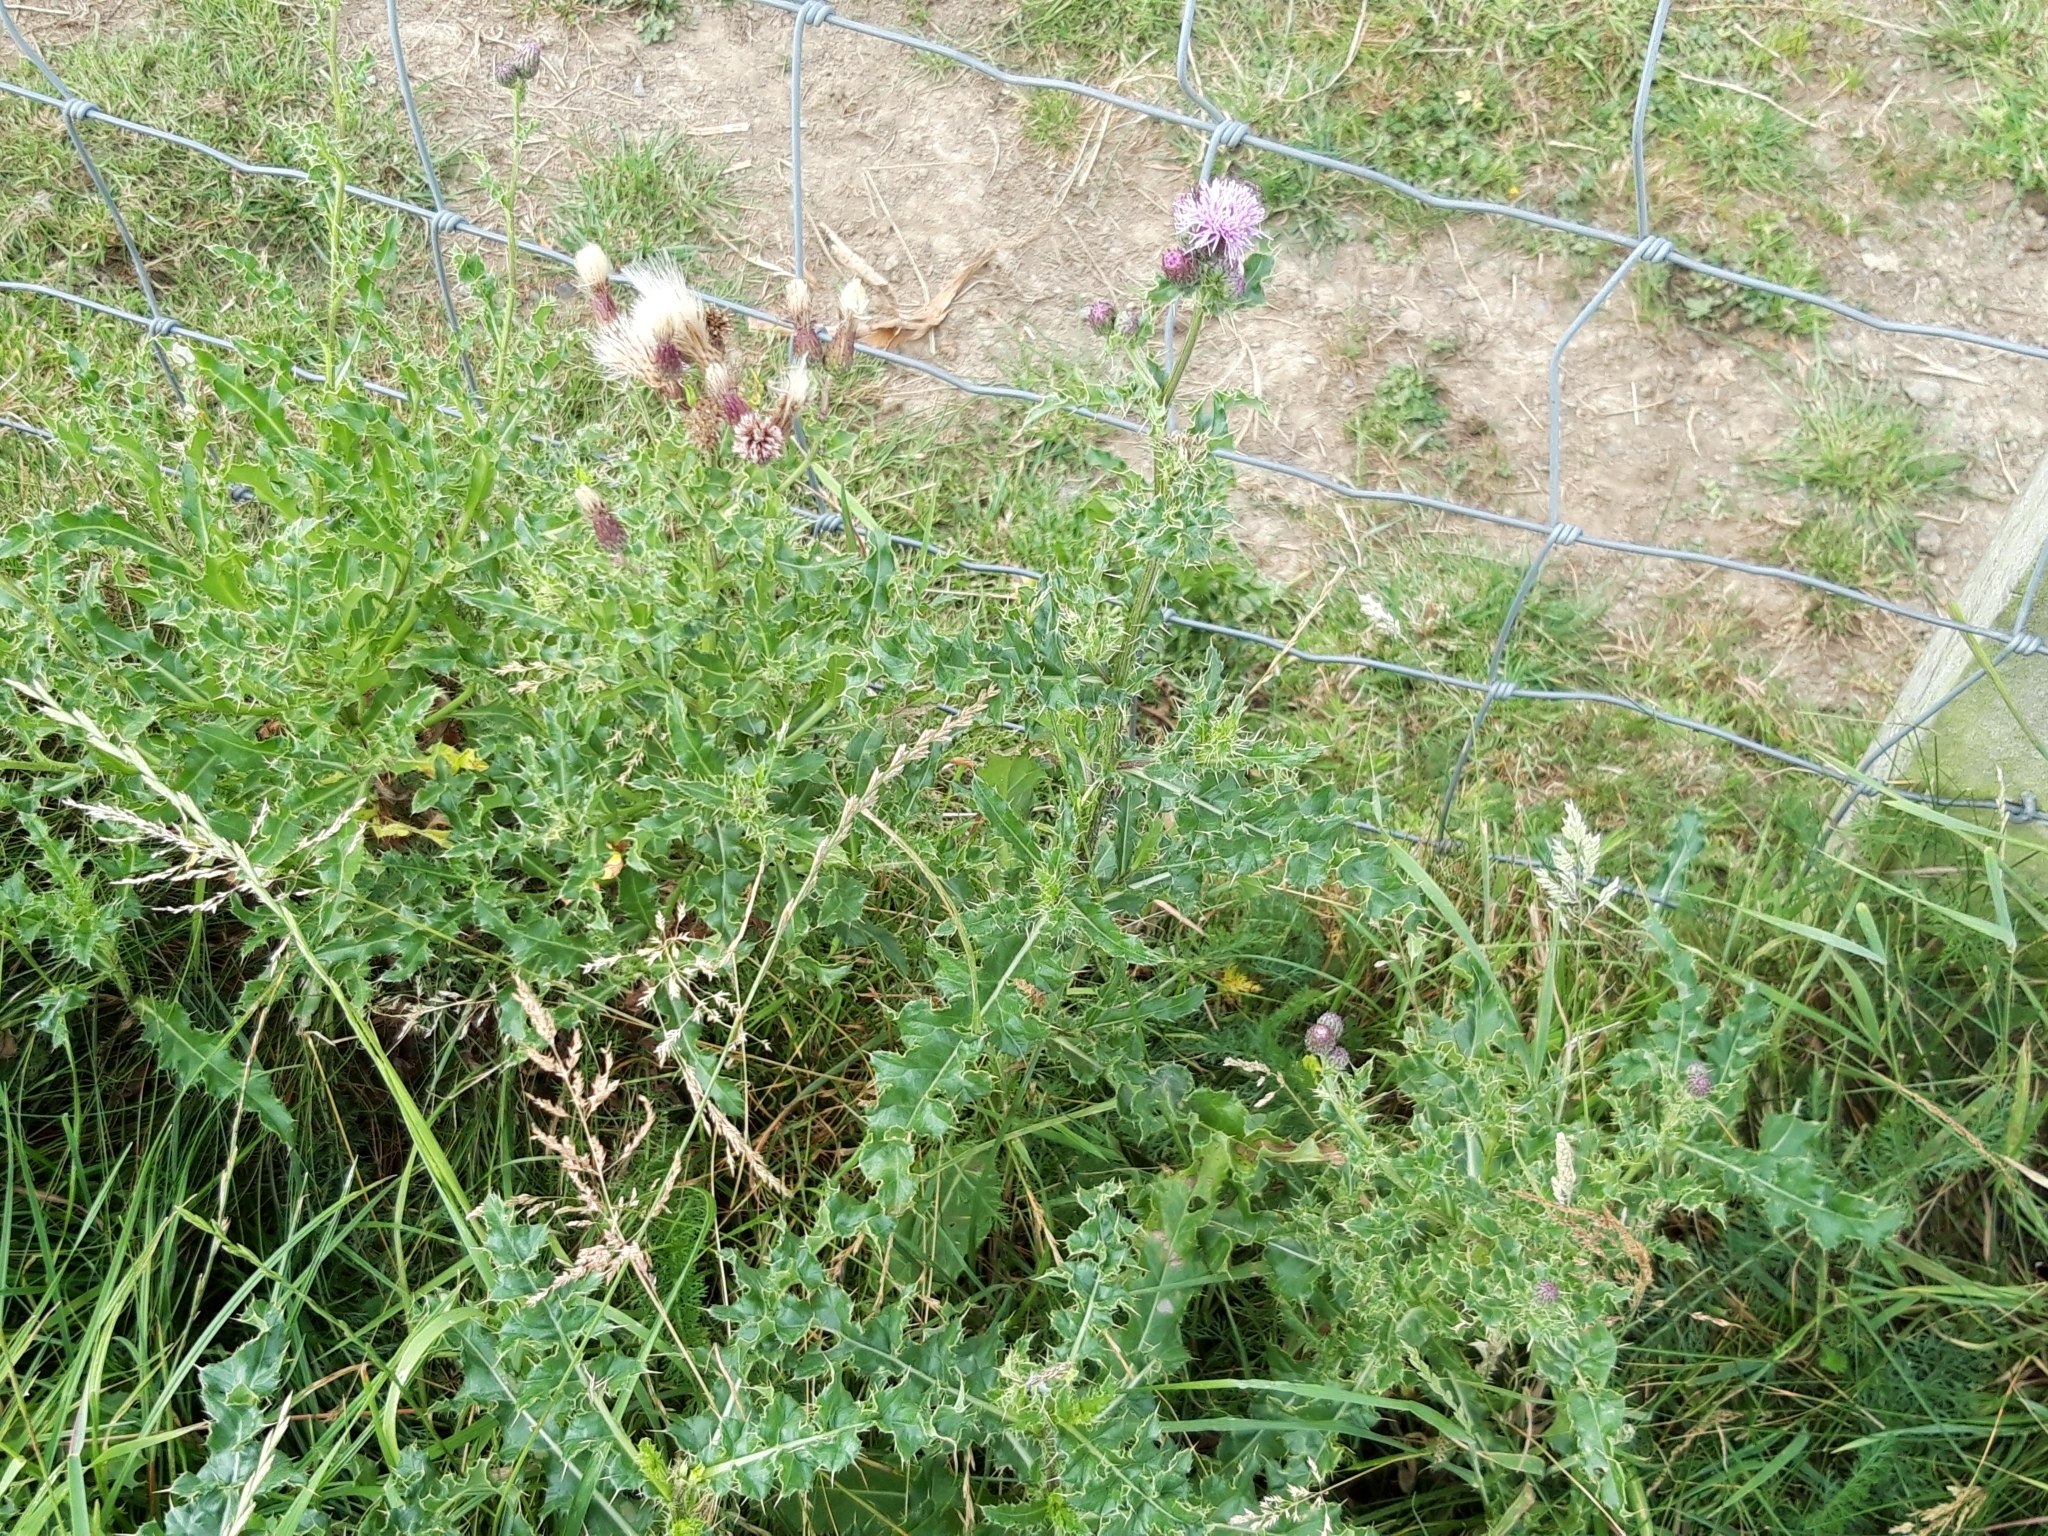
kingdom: Plantae
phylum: Tracheophyta
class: Magnoliopsida
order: Asterales
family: Asteraceae
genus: Cirsium
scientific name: Cirsium arvense
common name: Creeping thistle
